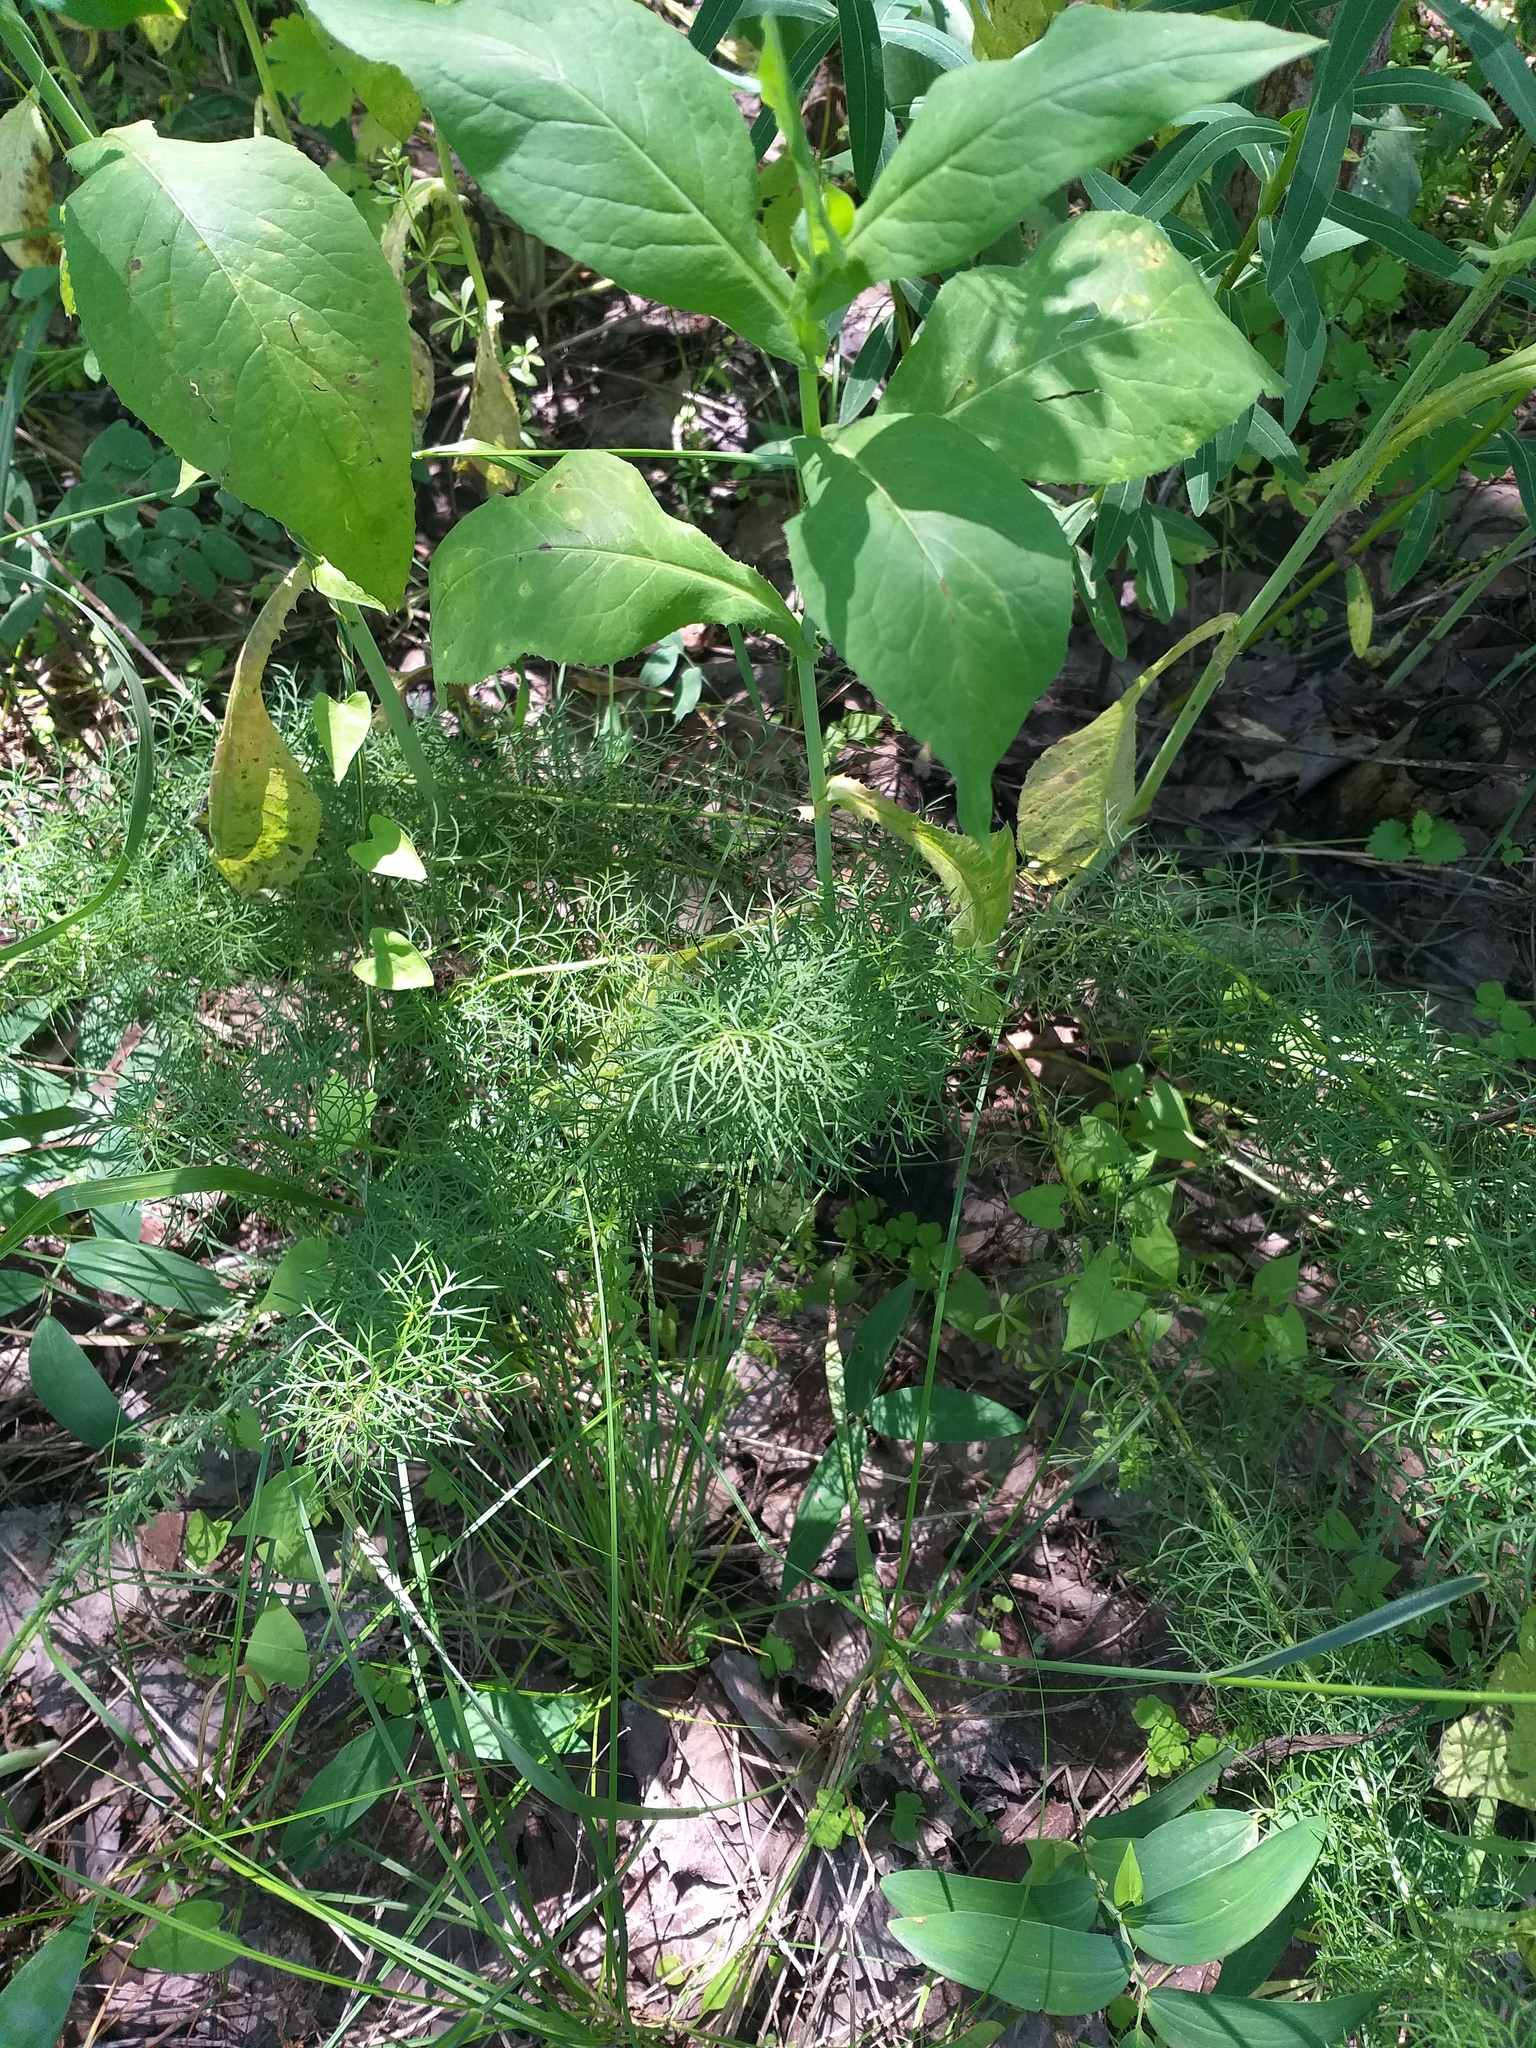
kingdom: Plantae
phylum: Tracheophyta
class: Magnoliopsida
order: Ranunculales
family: Ranunculaceae
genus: Adonis
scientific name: Adonis vernalis
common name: Yellow pheasants-eye
